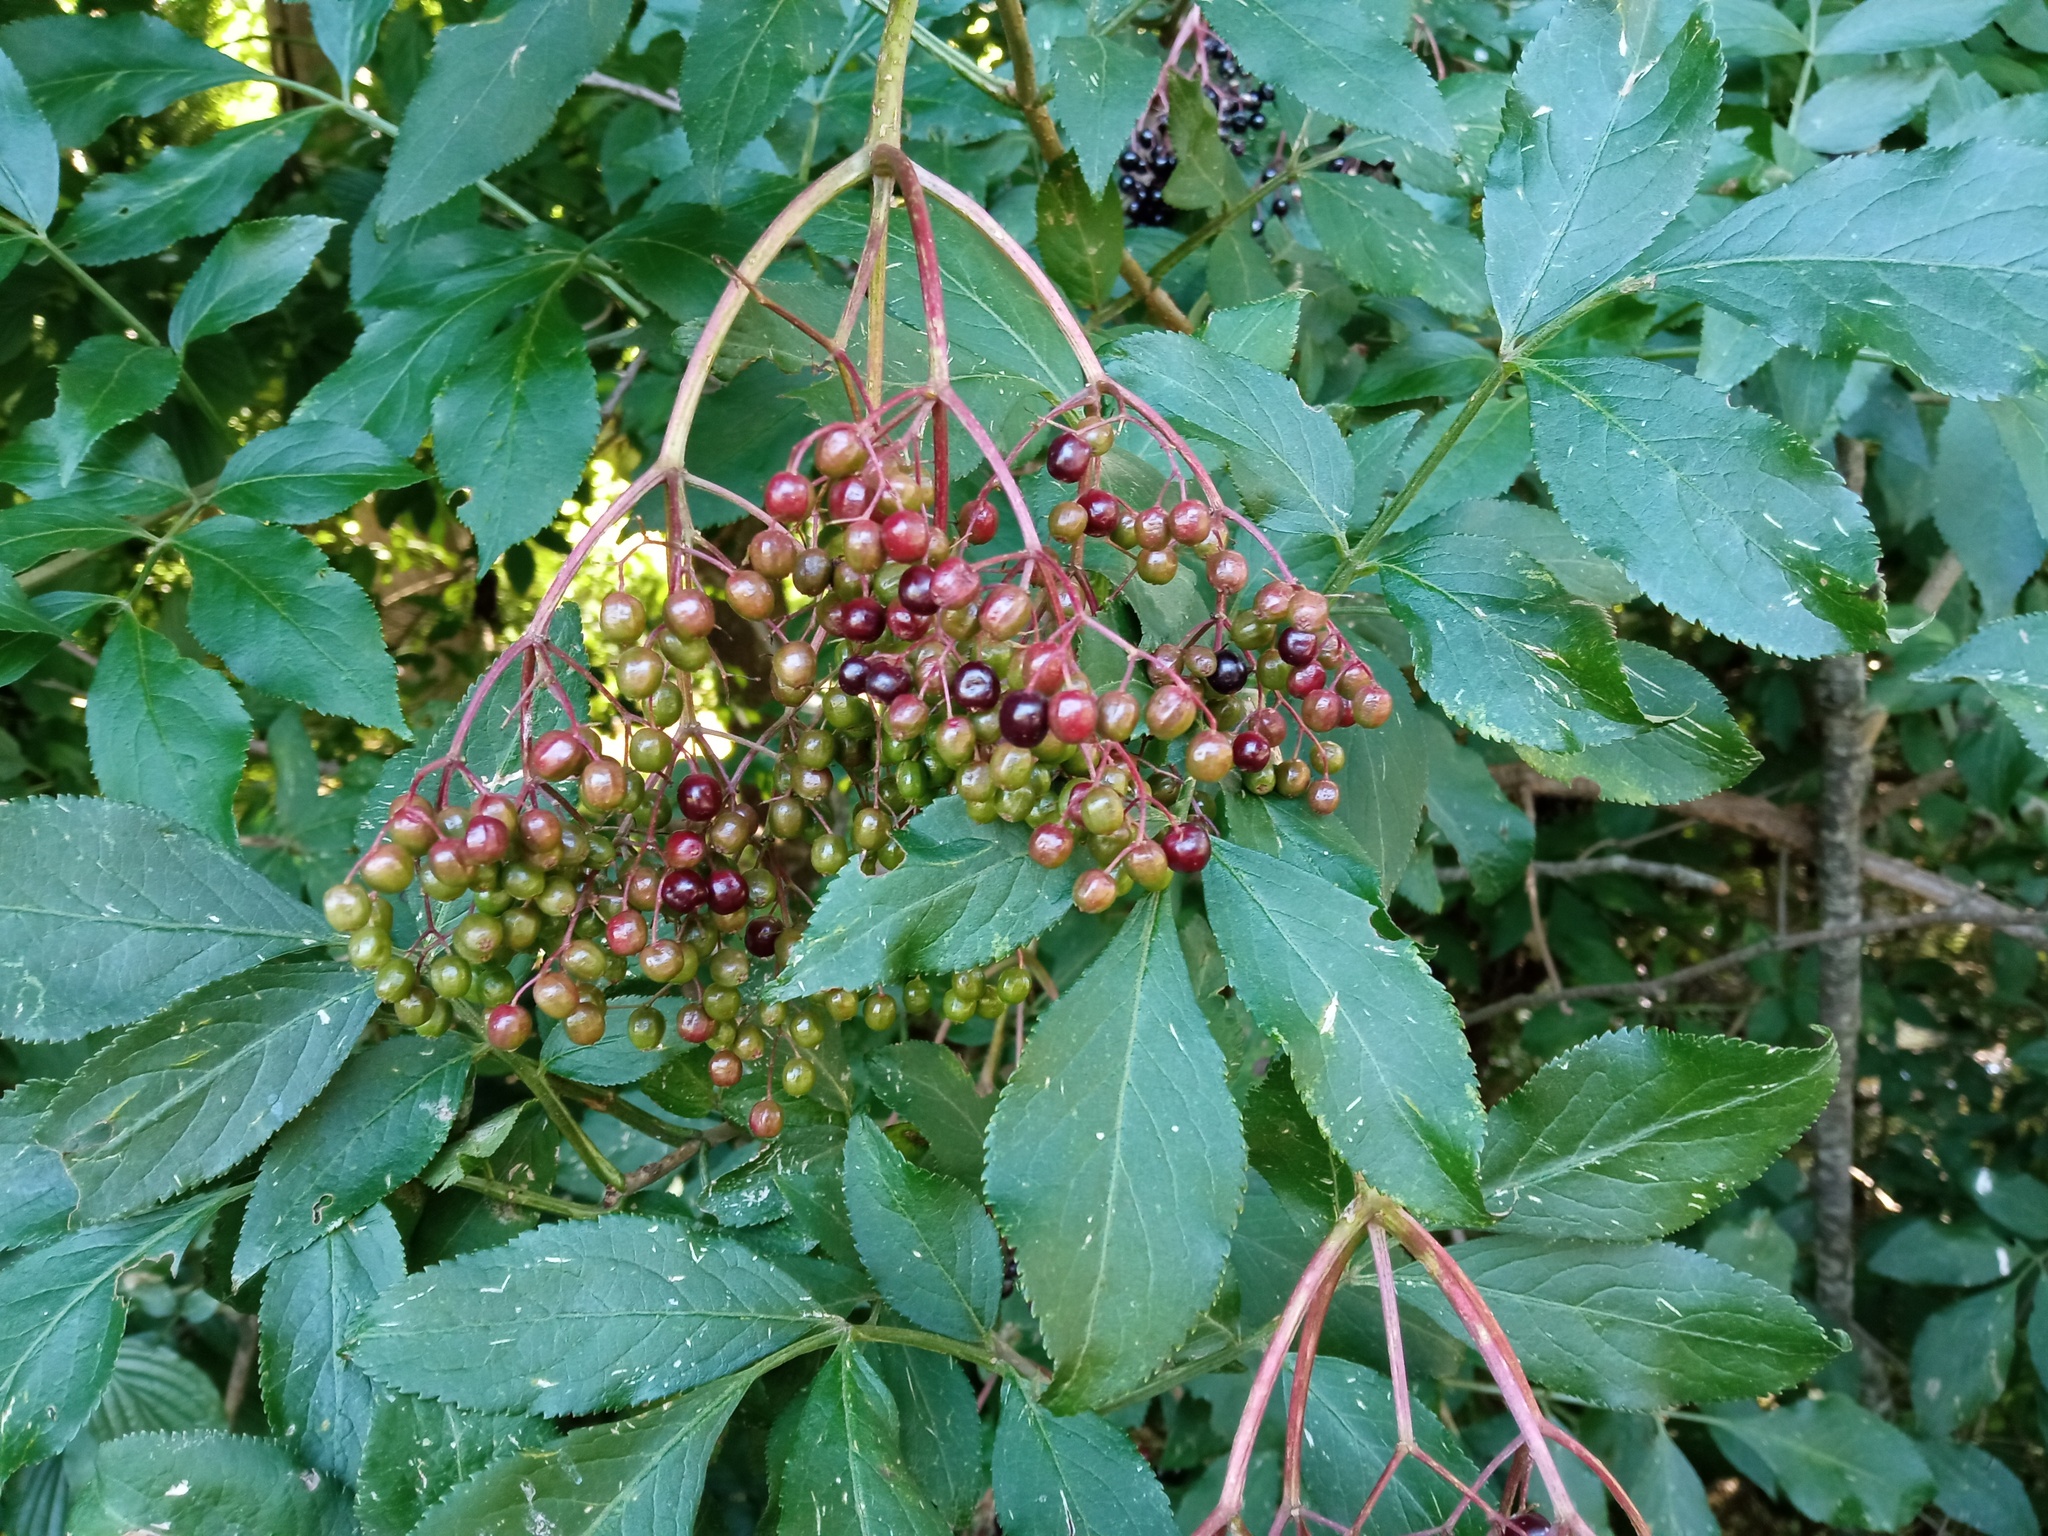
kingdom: Plantae
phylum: Tracheophyta
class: Magnoliopsida
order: Dipsacales
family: Viburnaceae
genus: Sambucus
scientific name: Sambucus nigra
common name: Elder
